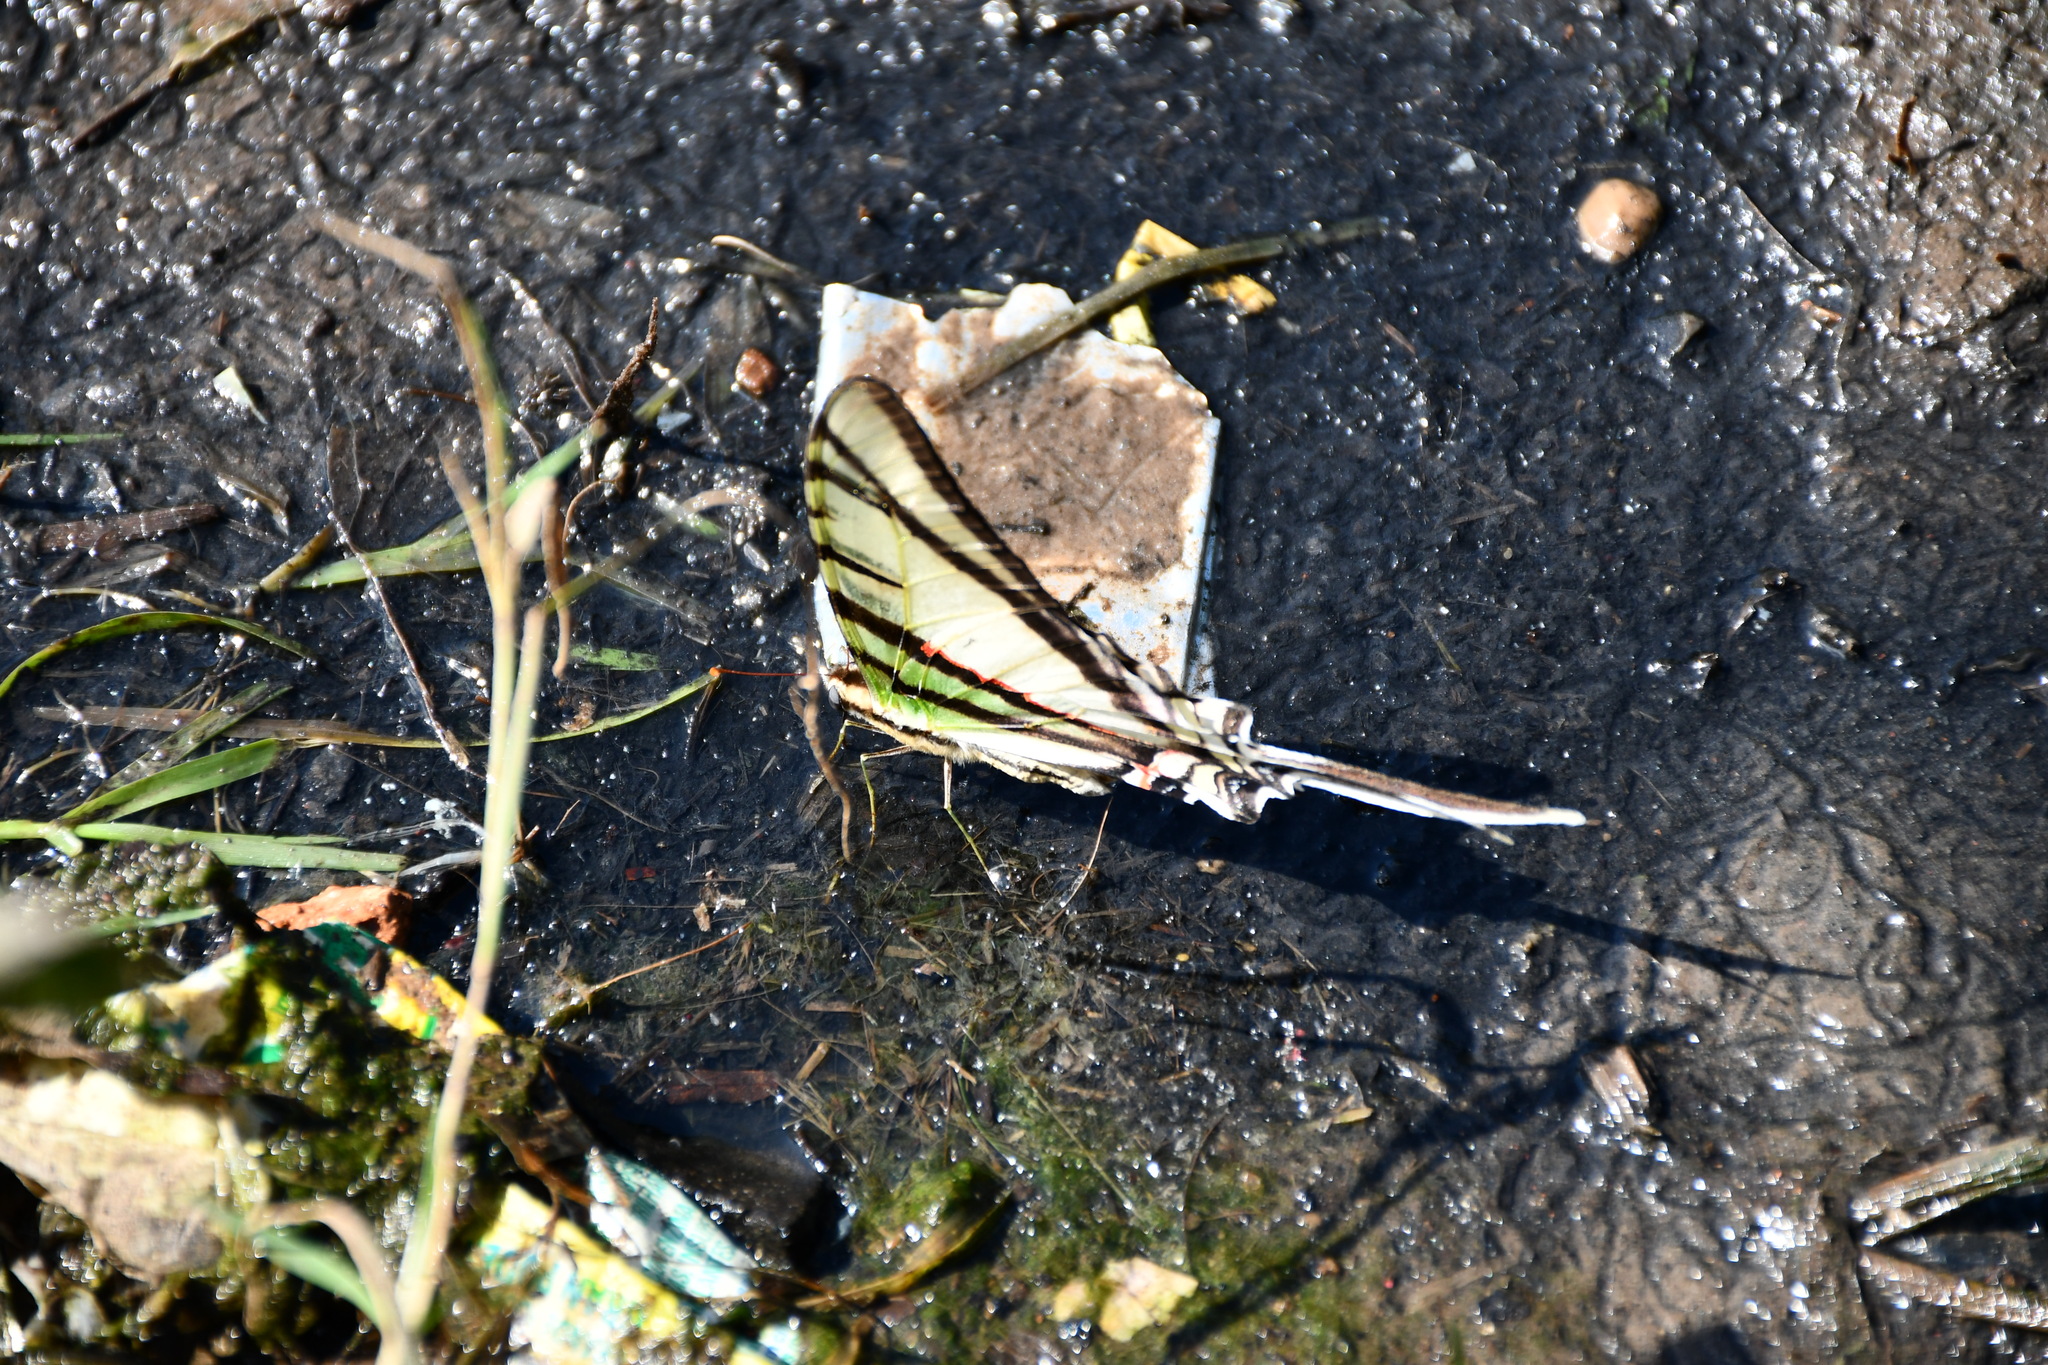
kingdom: Animalia
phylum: Arthropoda
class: Insecta
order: Lepidoptera
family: Papilionidae
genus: Protesilaus
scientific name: Protesilaus protesilaus
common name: Great kite-swallowtail
